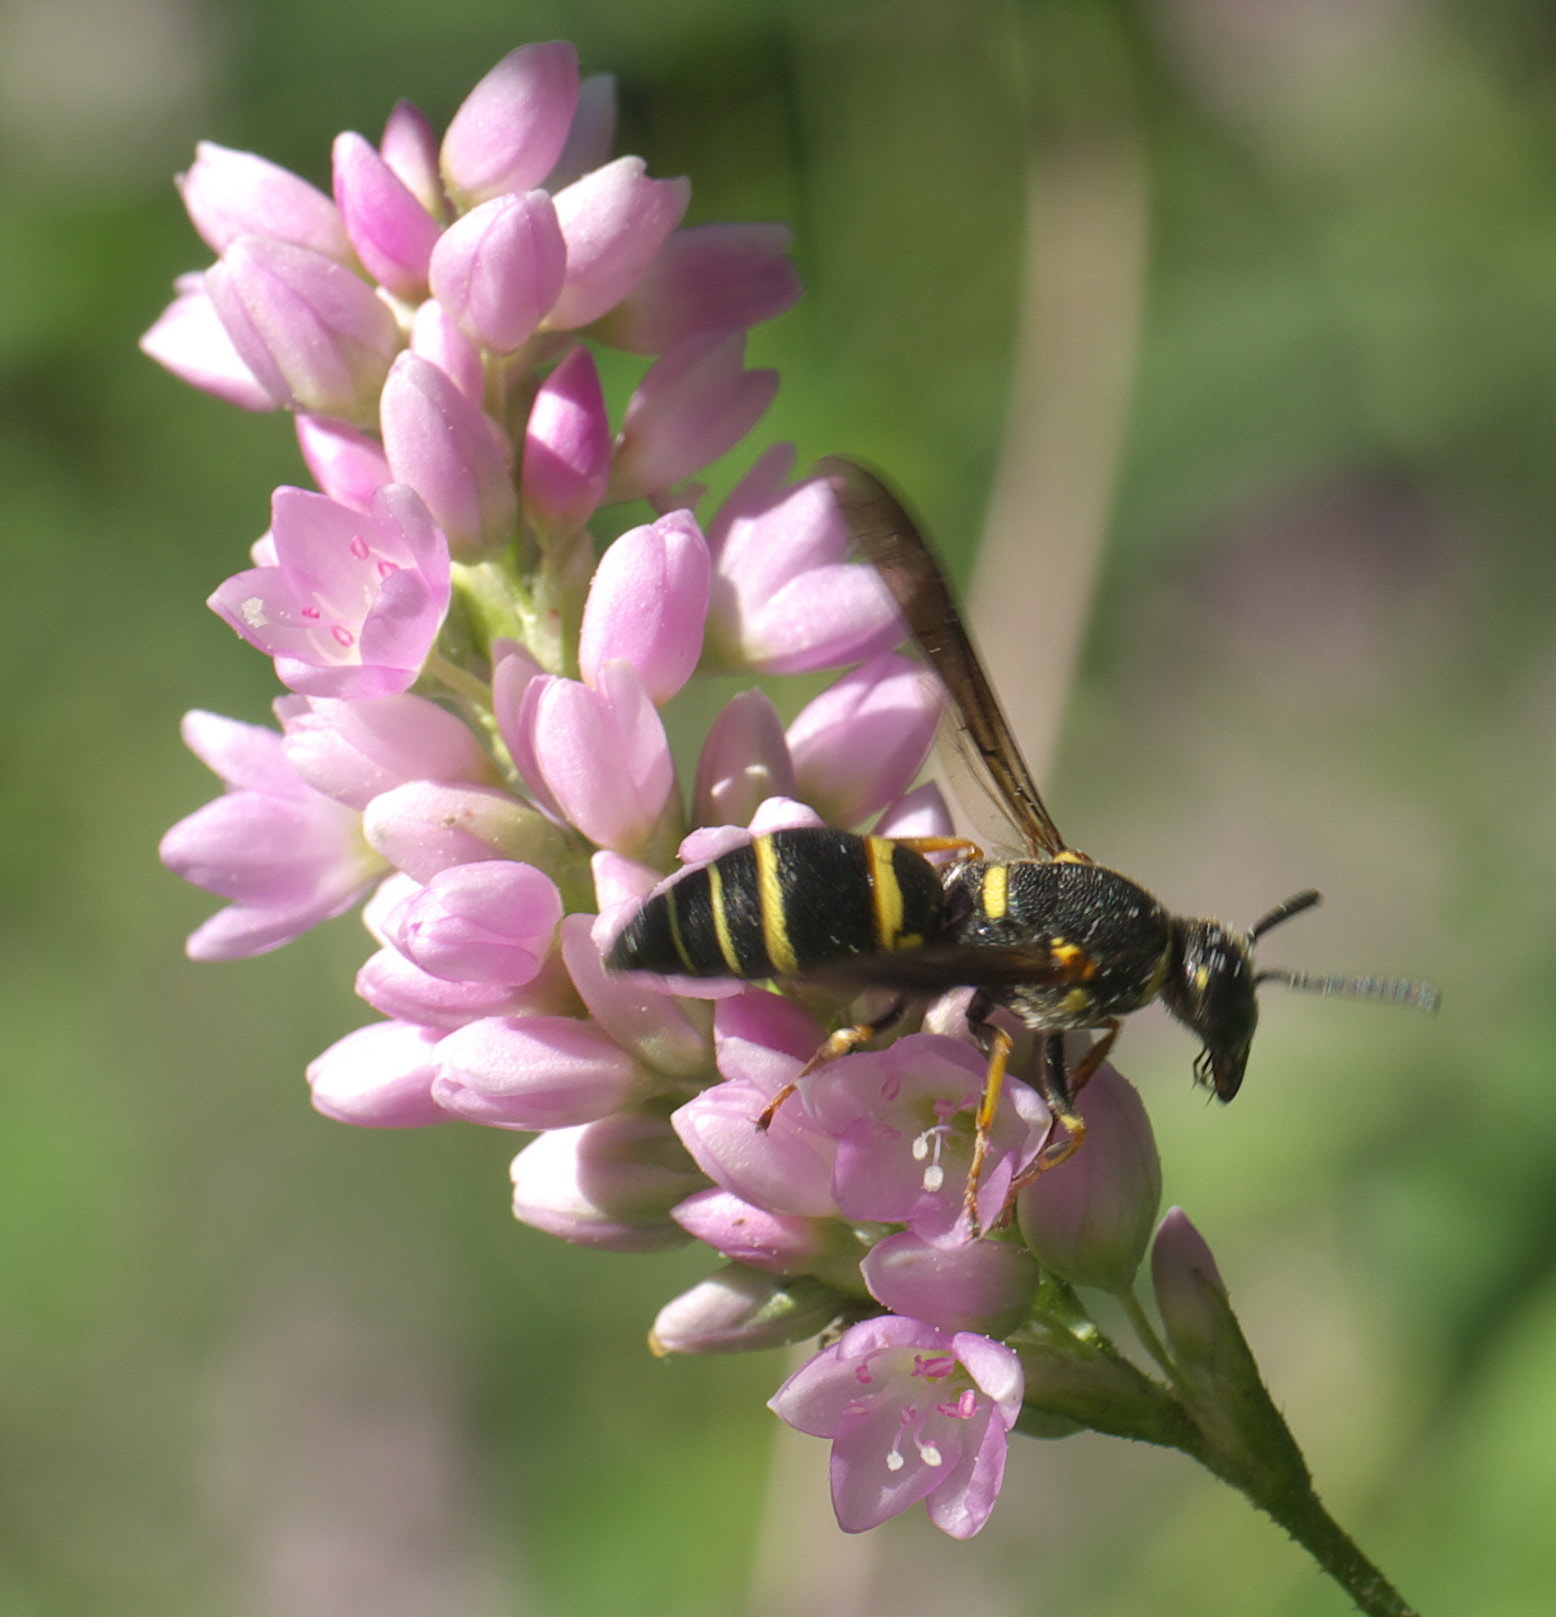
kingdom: Animalia
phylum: Arthropoda
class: Insecta
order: Hymenoptera
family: Eumenidae
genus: Euodynerus
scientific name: Euodynerus foraminatus
